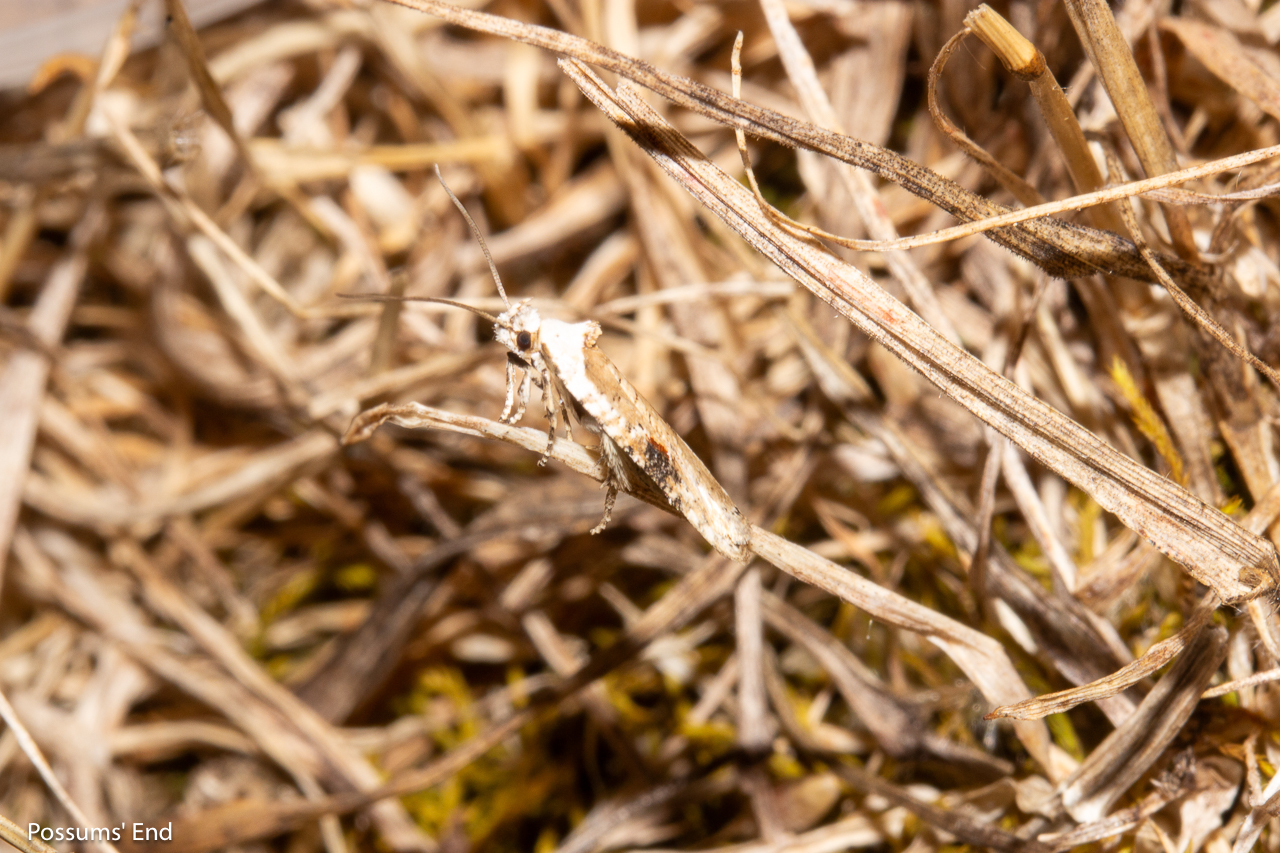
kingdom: Animalia
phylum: Arthropoda
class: Insecta
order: Lepidoptera
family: Depressariidae
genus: Agonopterix
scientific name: Agonopterix alstroemeriana
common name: Moth
